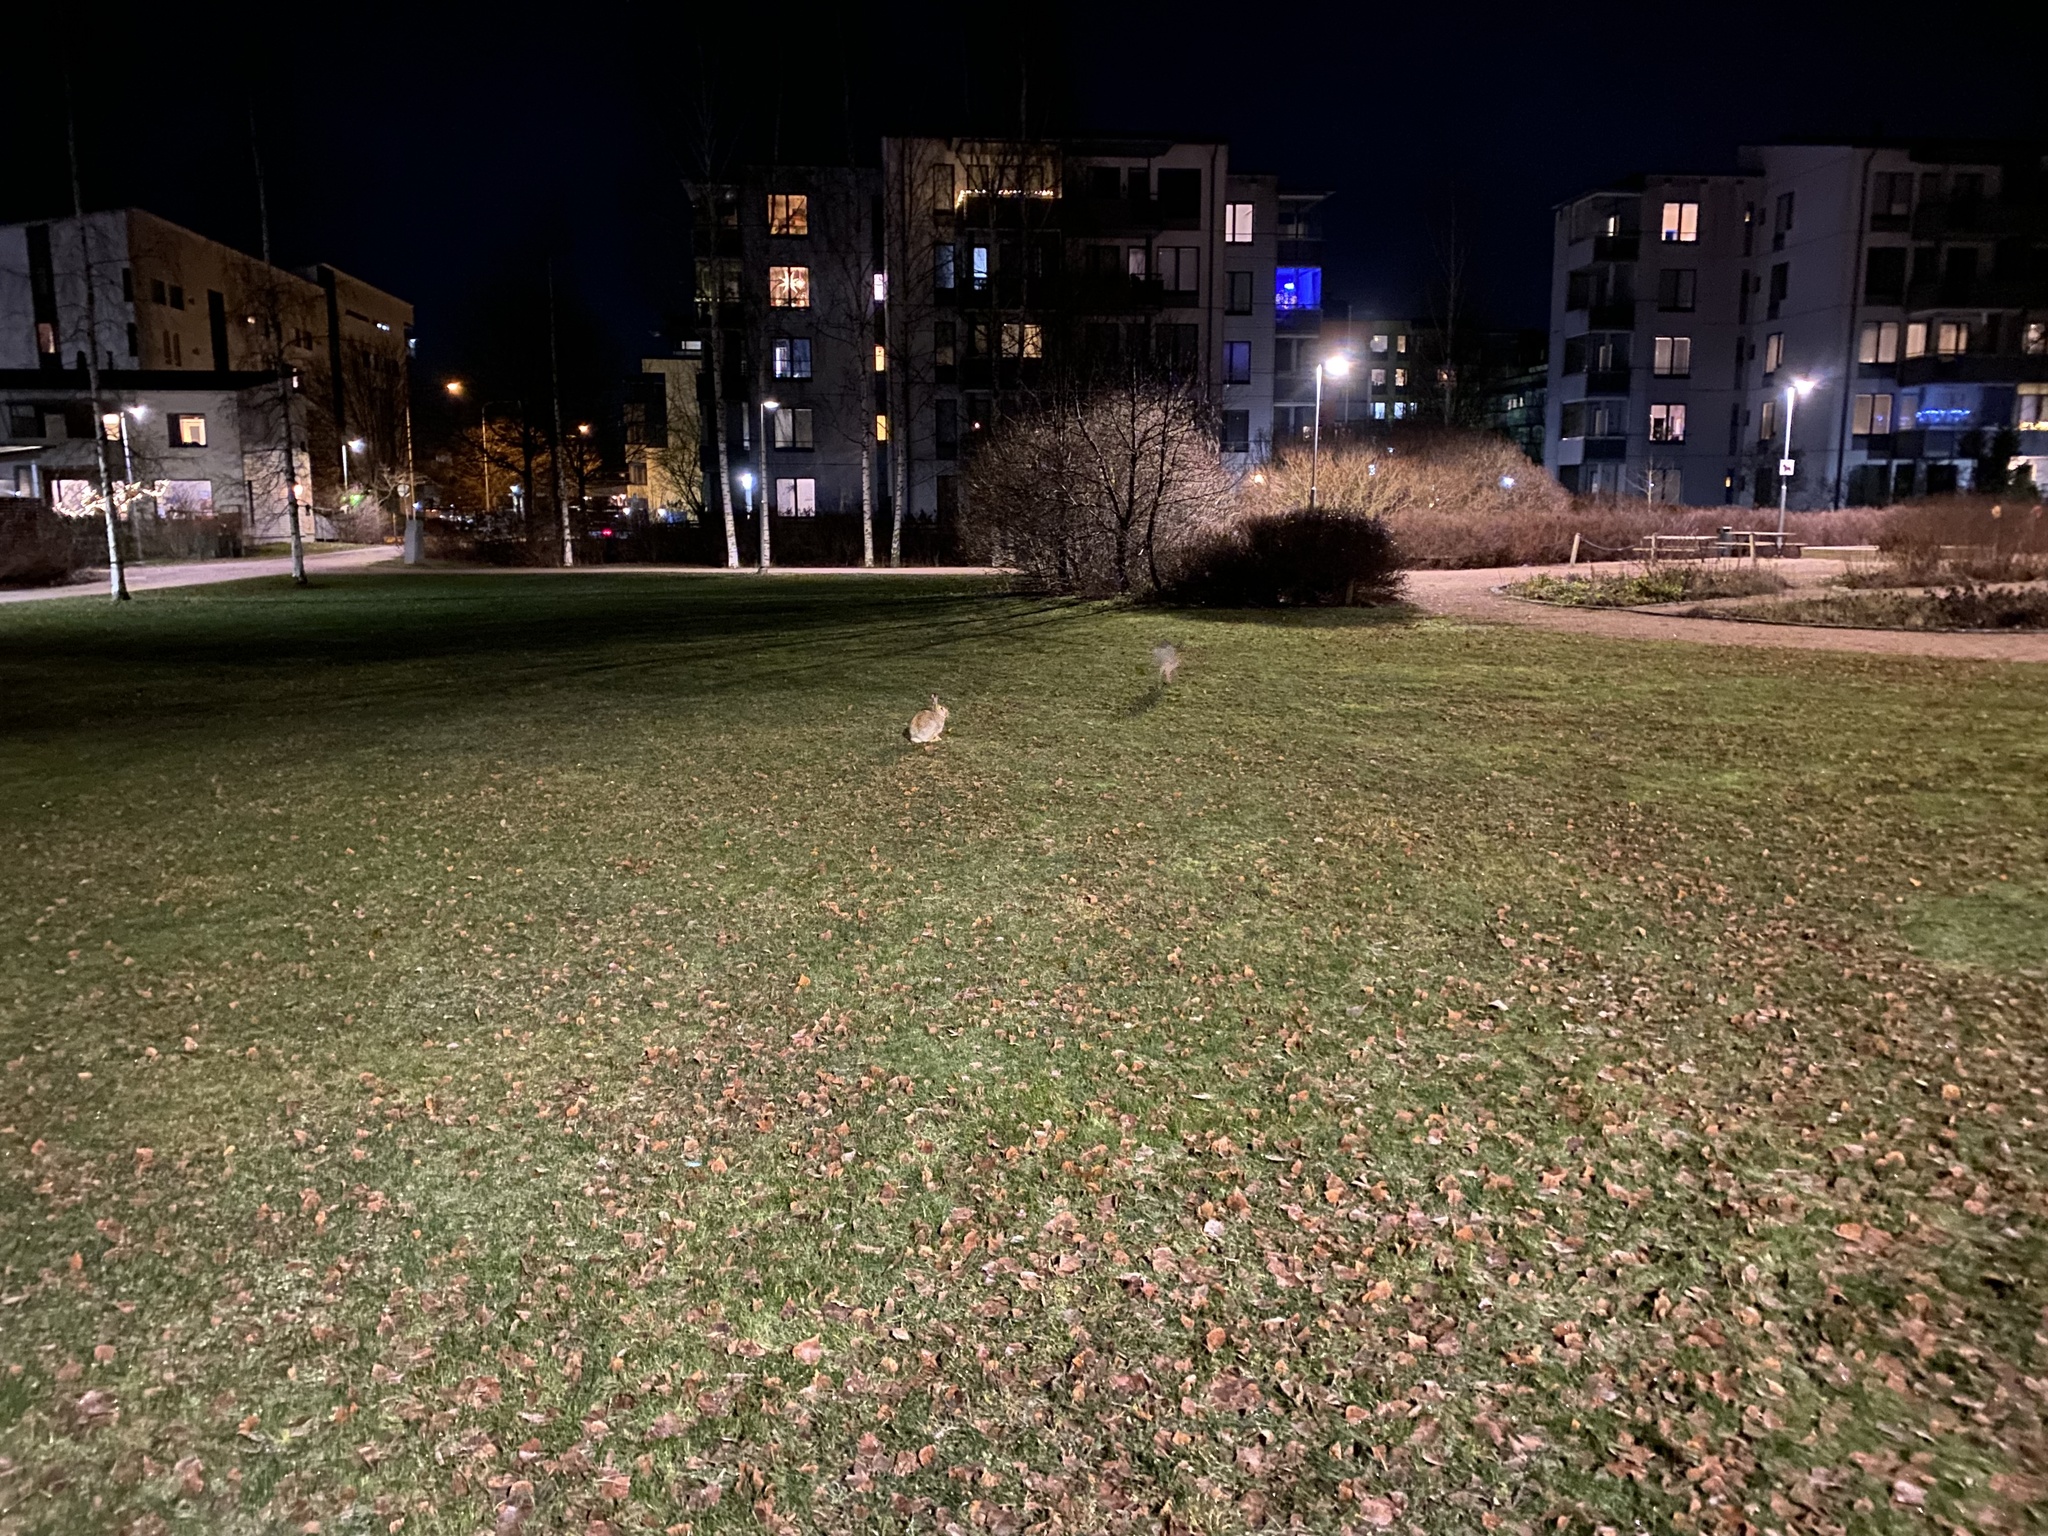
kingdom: Animalia
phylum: Chordata
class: Mammalia
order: Lagomorpha
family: Leporidae
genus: Lepus
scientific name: Lepus europaeus
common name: European hare
